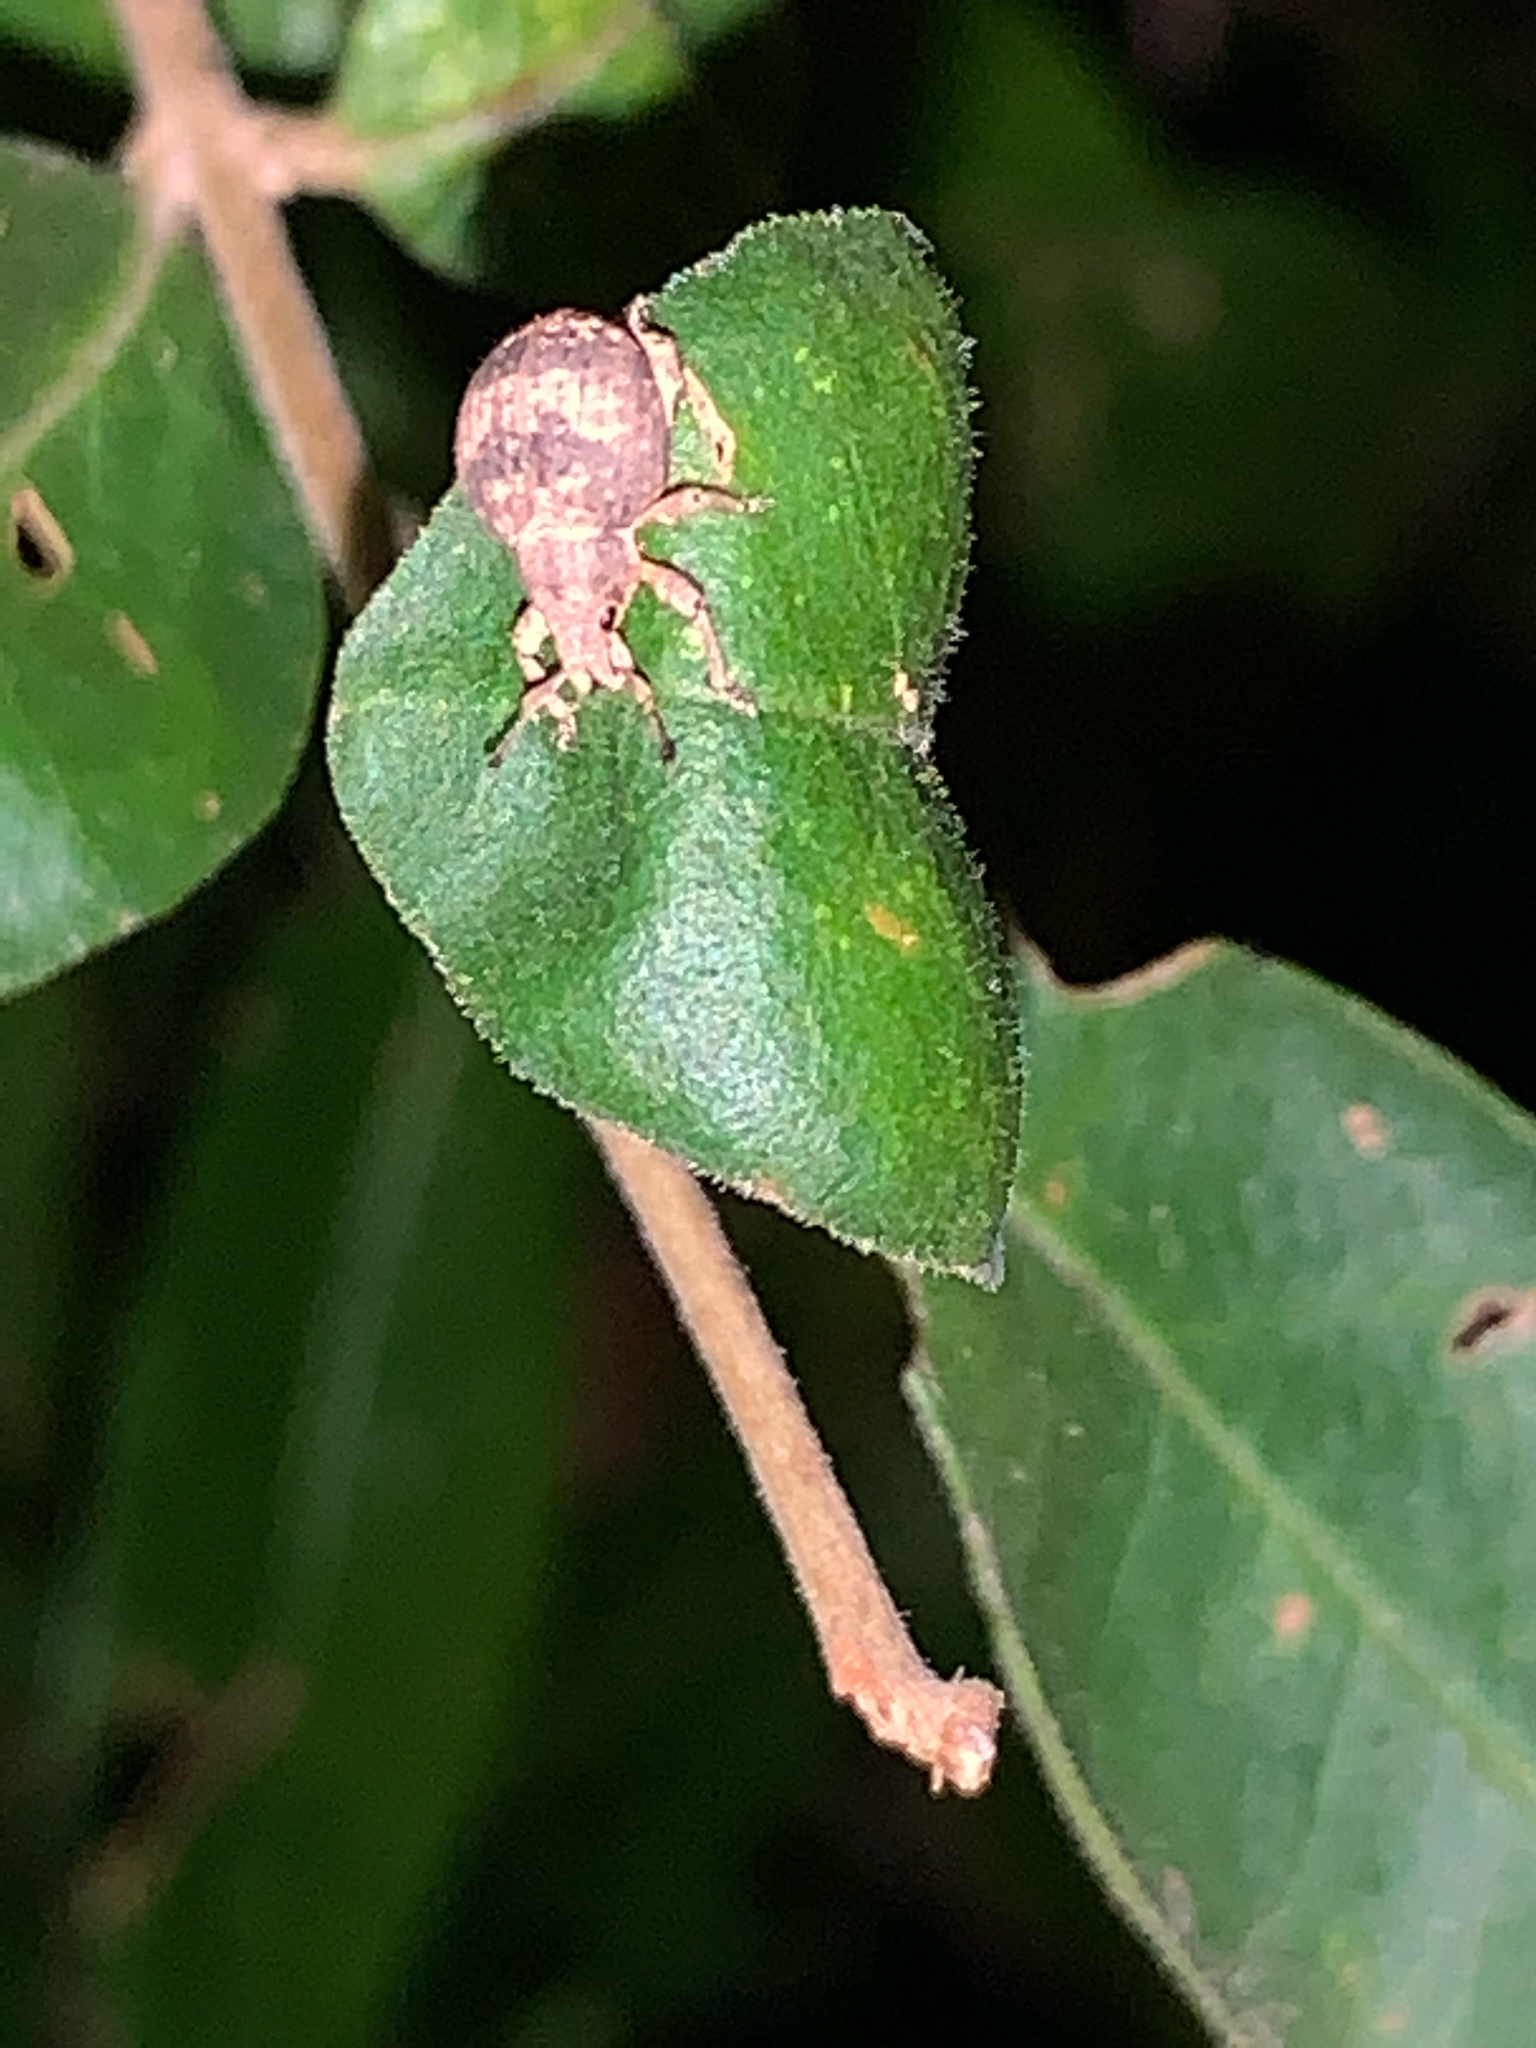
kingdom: Animalia
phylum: Arthropoda
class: Insecta
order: Coleoptera
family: Curculionidae
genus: Pseudocneorhinus
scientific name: Pseudocneorhinus bifasciatus
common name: Two-banded japanese weevil
